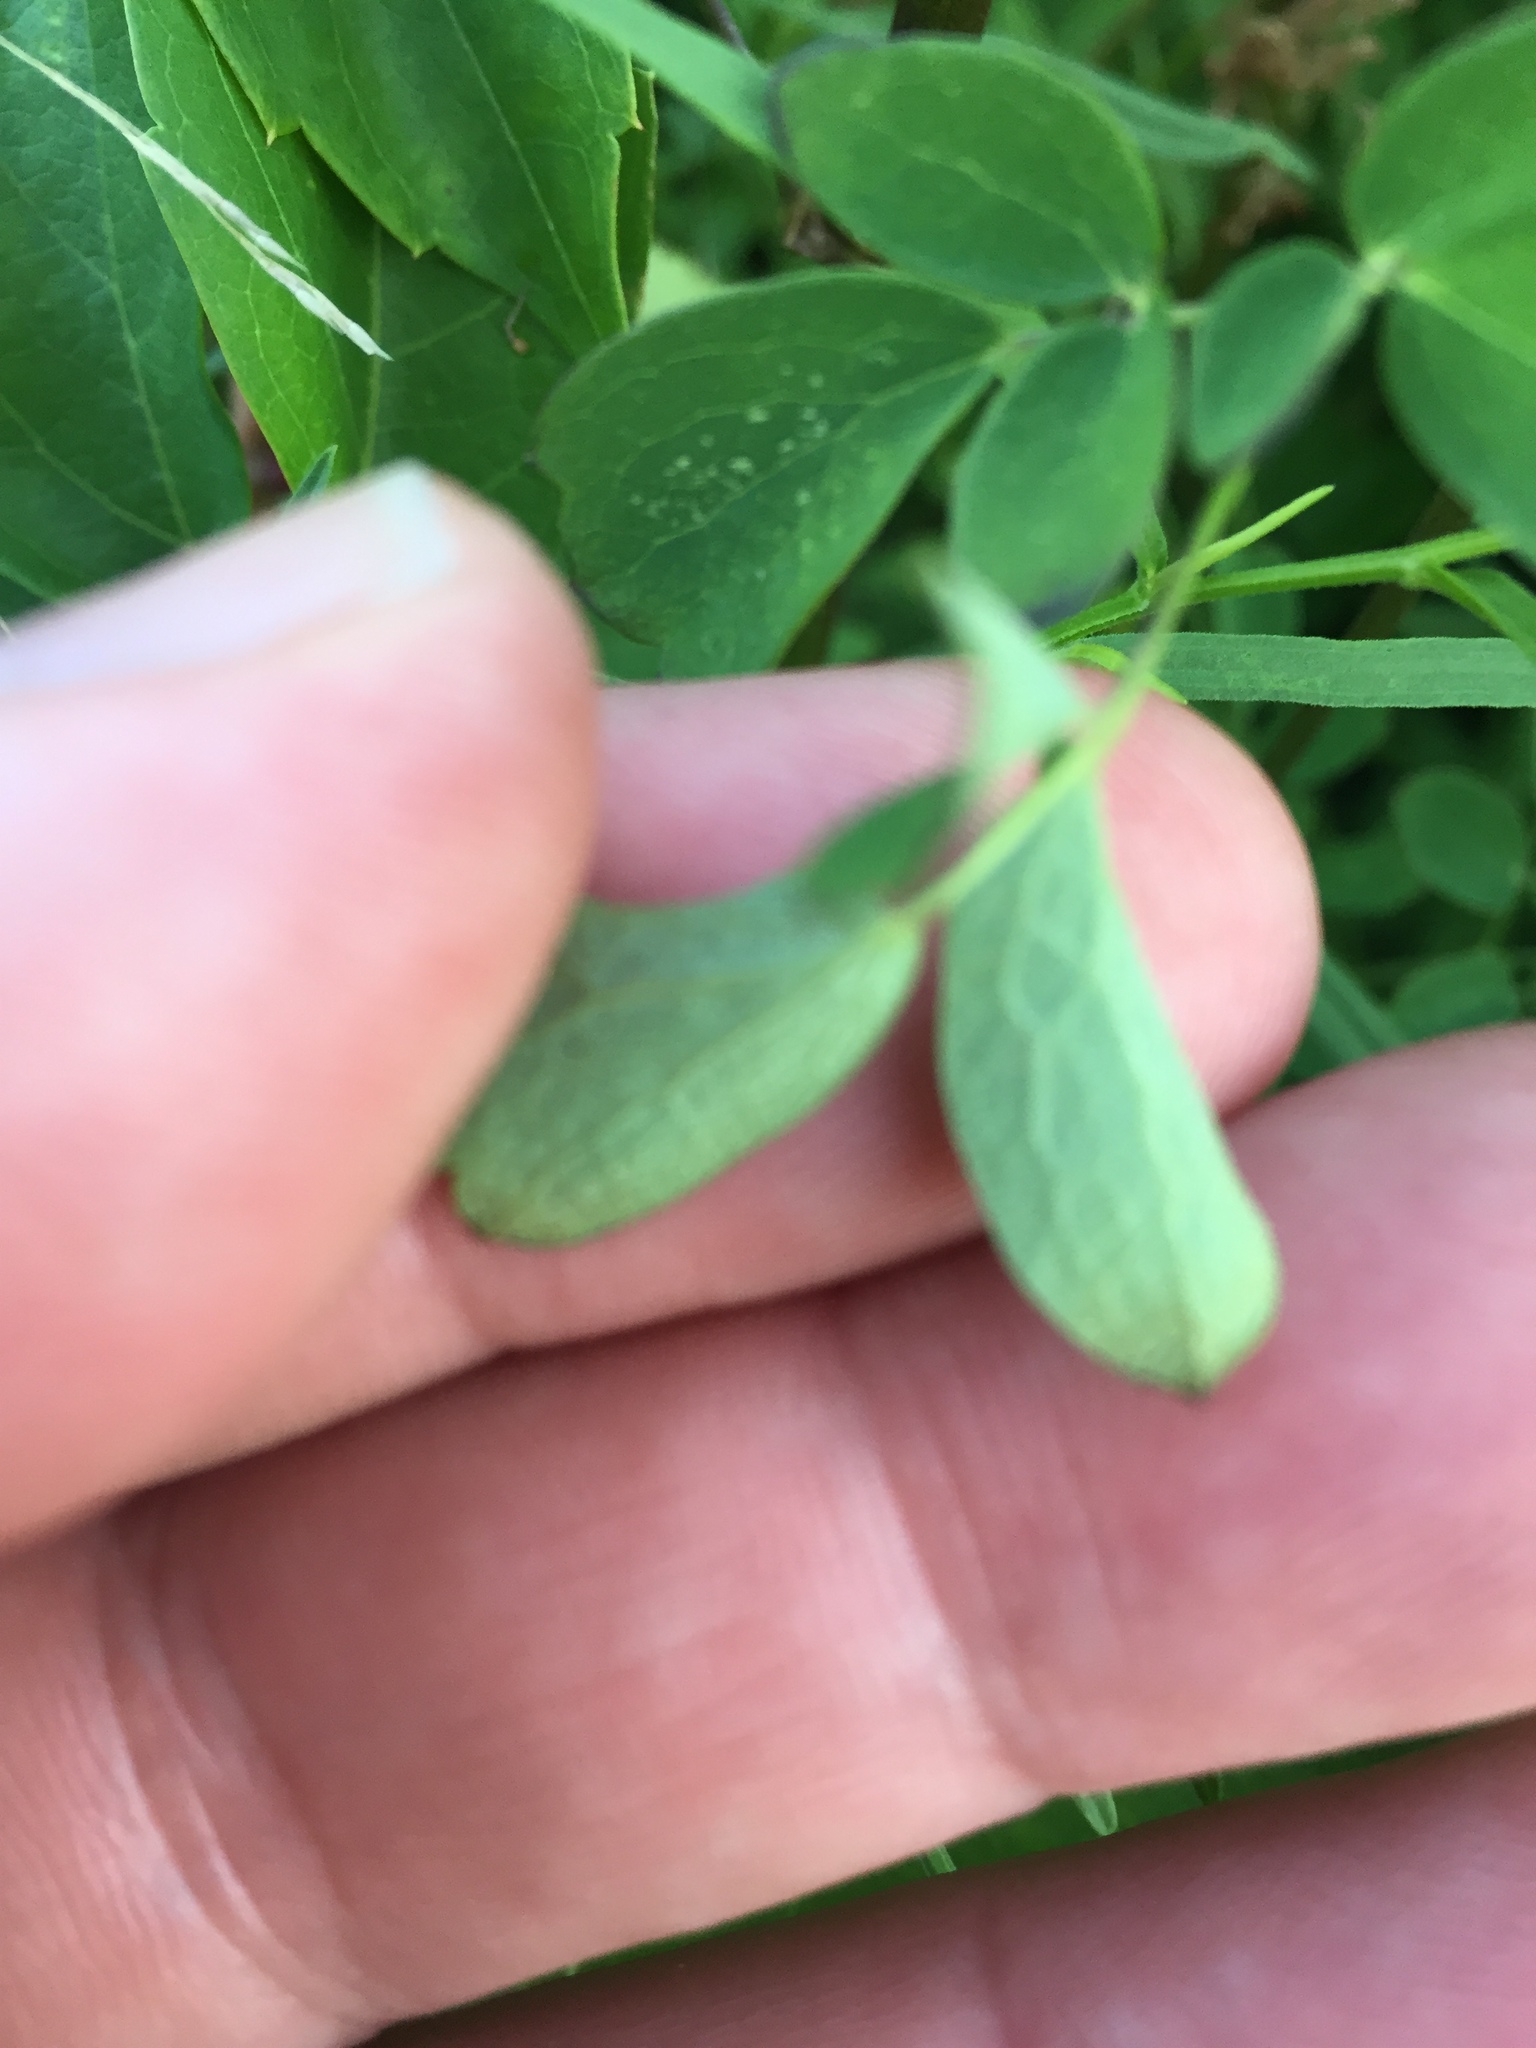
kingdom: Plantae
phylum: Tracheophyta
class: Magnoliopsida
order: Ranunculales
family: Ranunculaceae
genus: Thalictrum
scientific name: Thalictrum pubescens
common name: King-of-the-meadow
